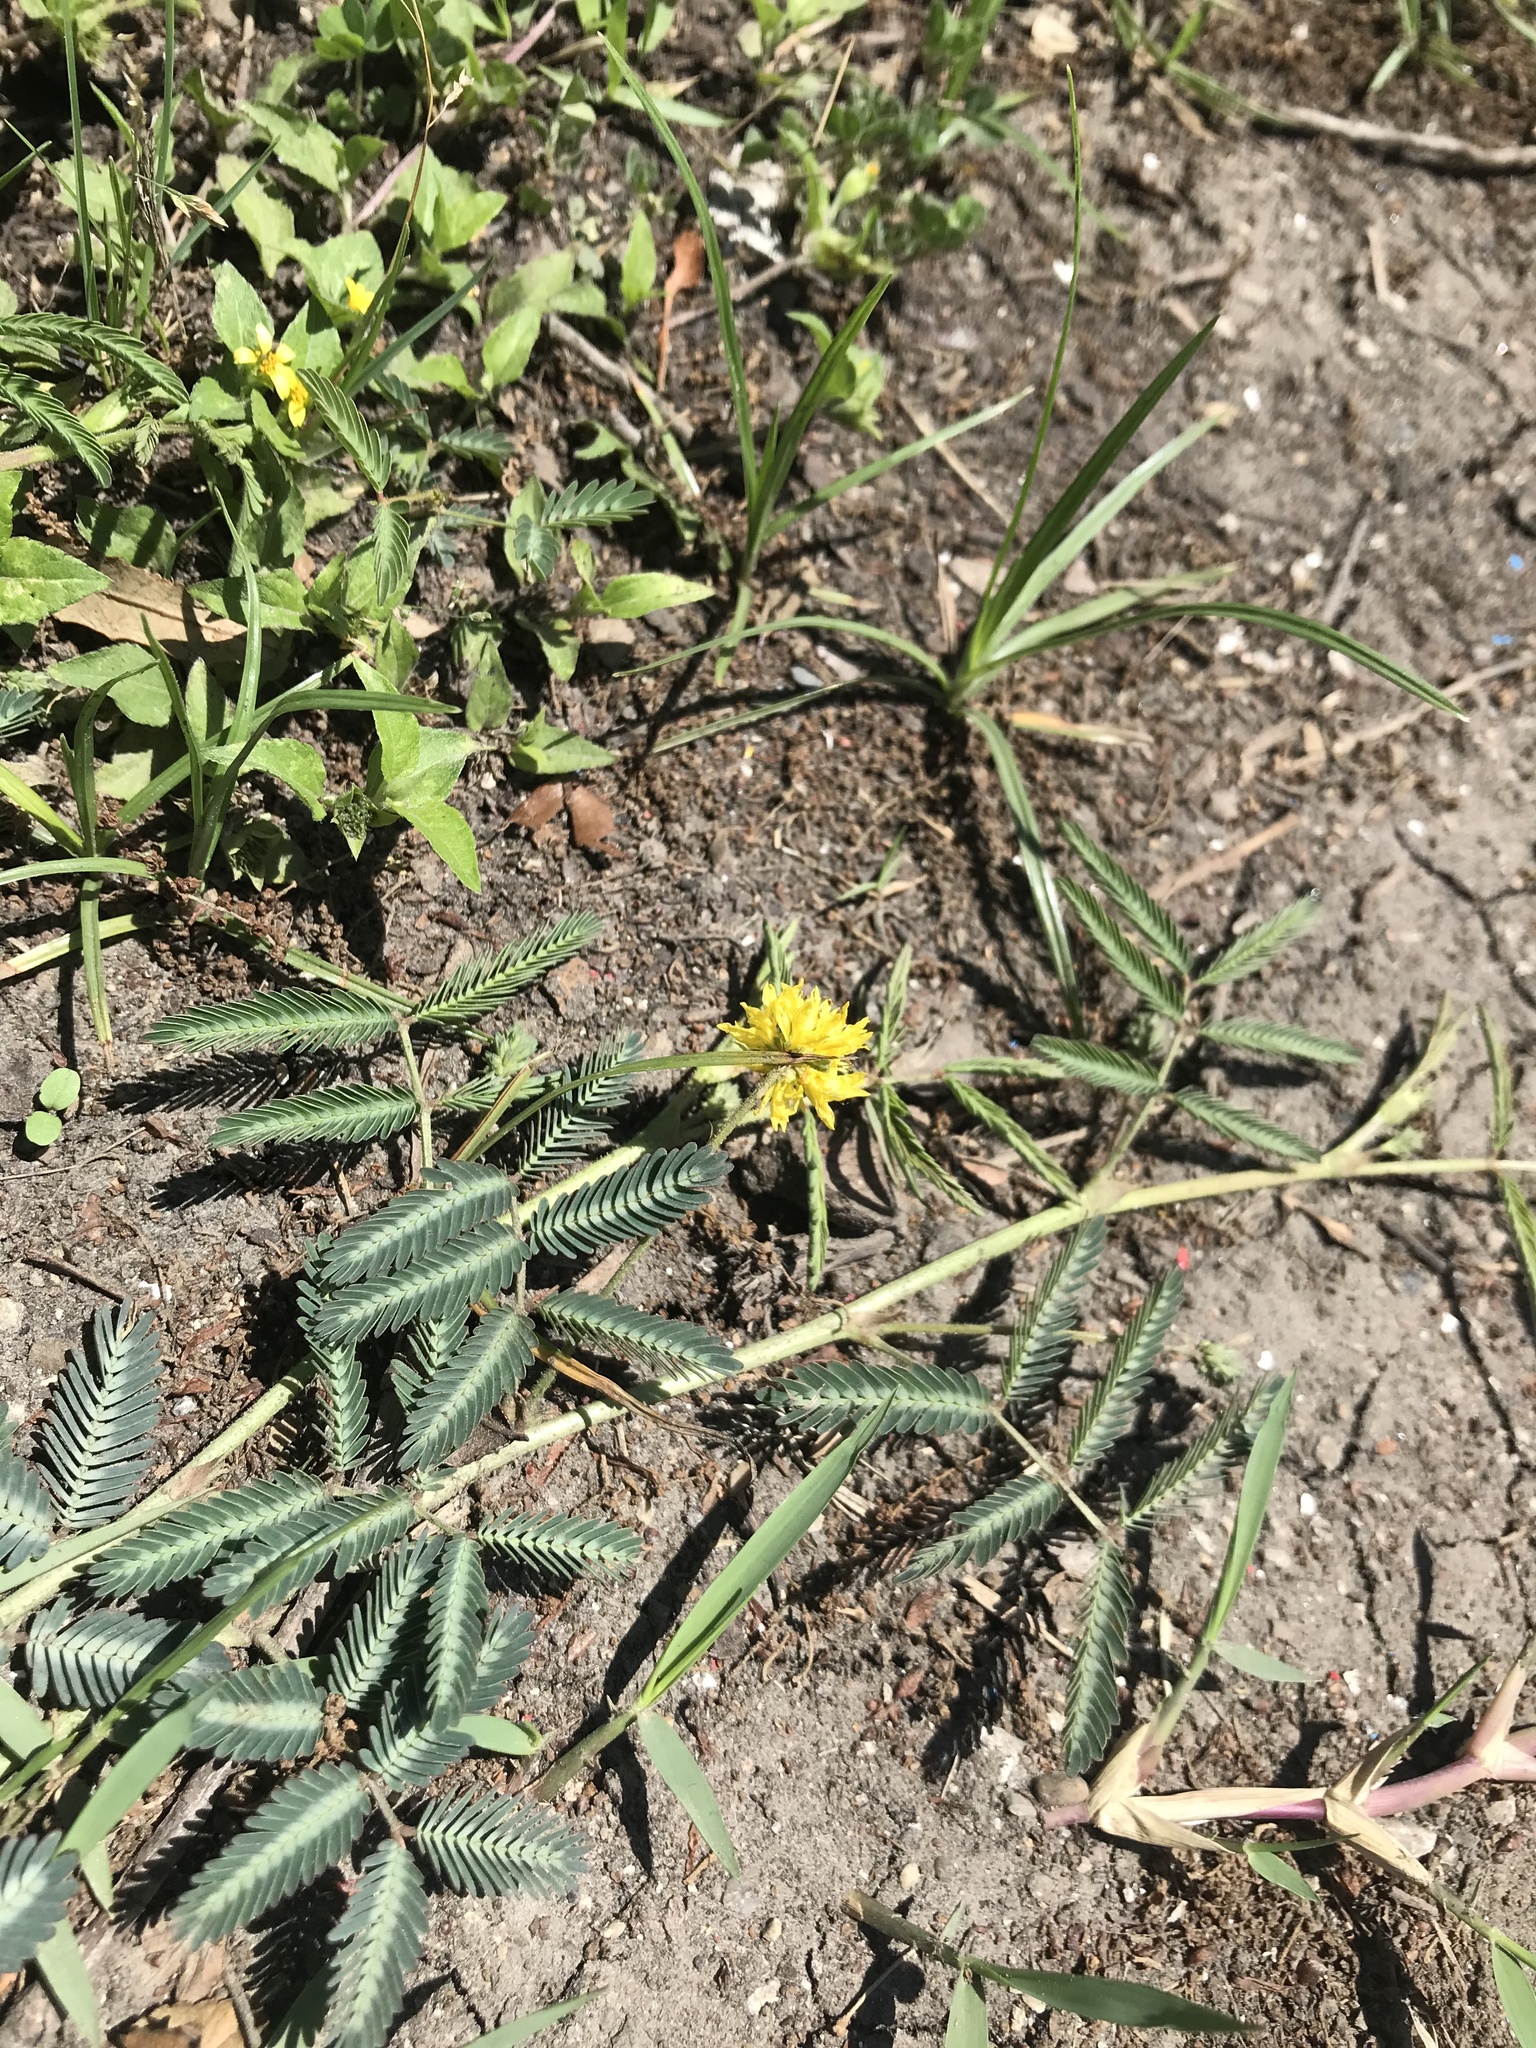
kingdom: Plantae
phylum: Tracheophyta
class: Magnoliopsida
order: Fabales
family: Fabaceae
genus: Neptunia
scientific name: Neptunia pubescens
